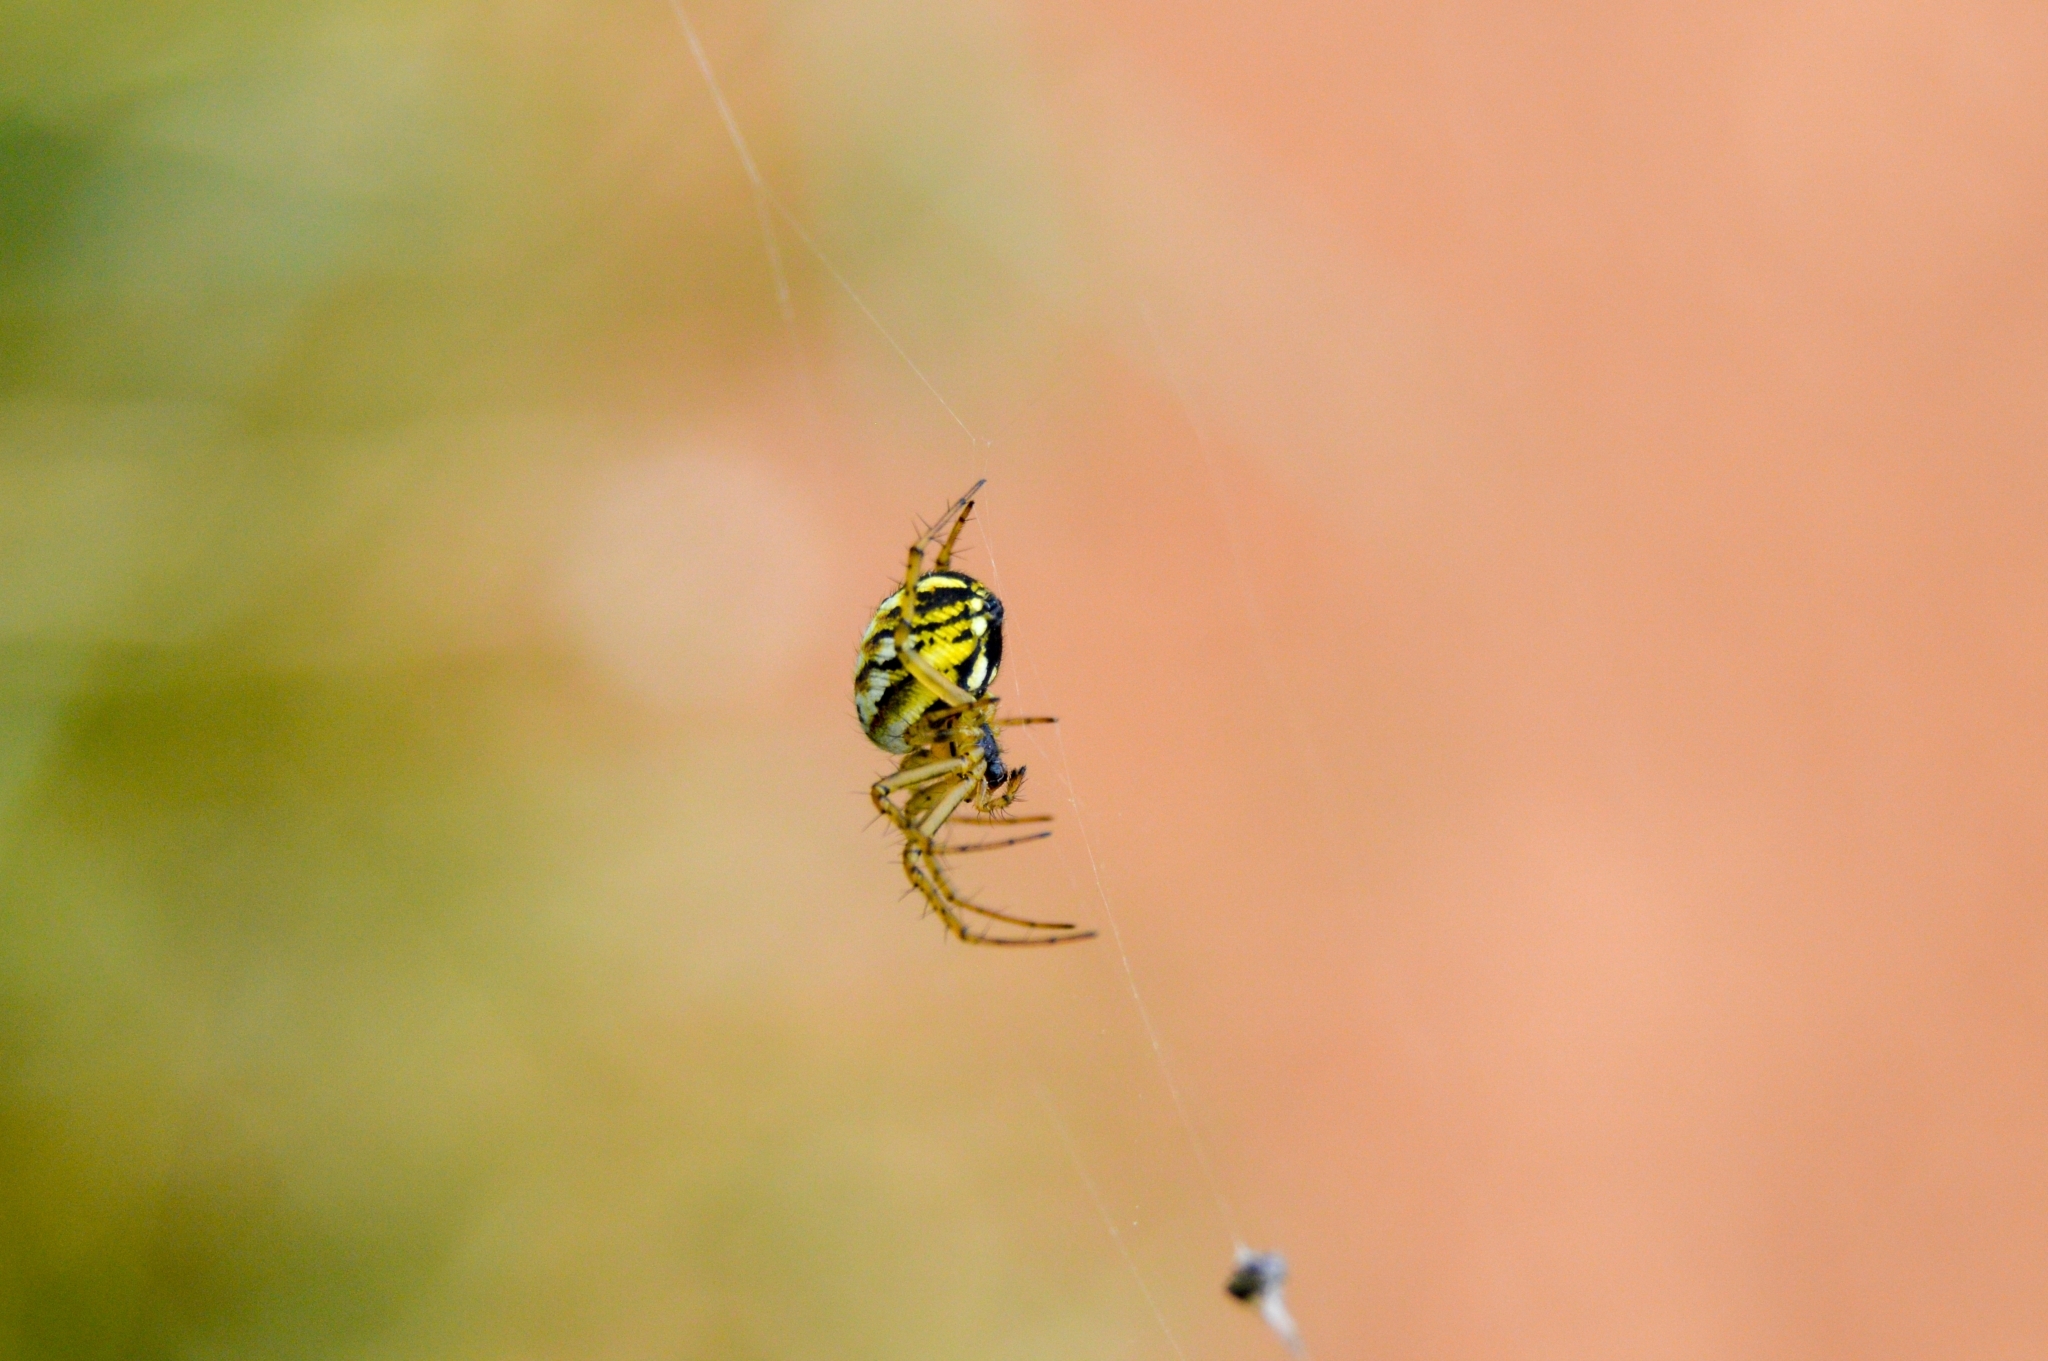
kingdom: Animalia
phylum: Arthropoda
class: Arachnida
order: Araneae
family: Araneidae
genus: Mangora
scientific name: Mangora acalypha
